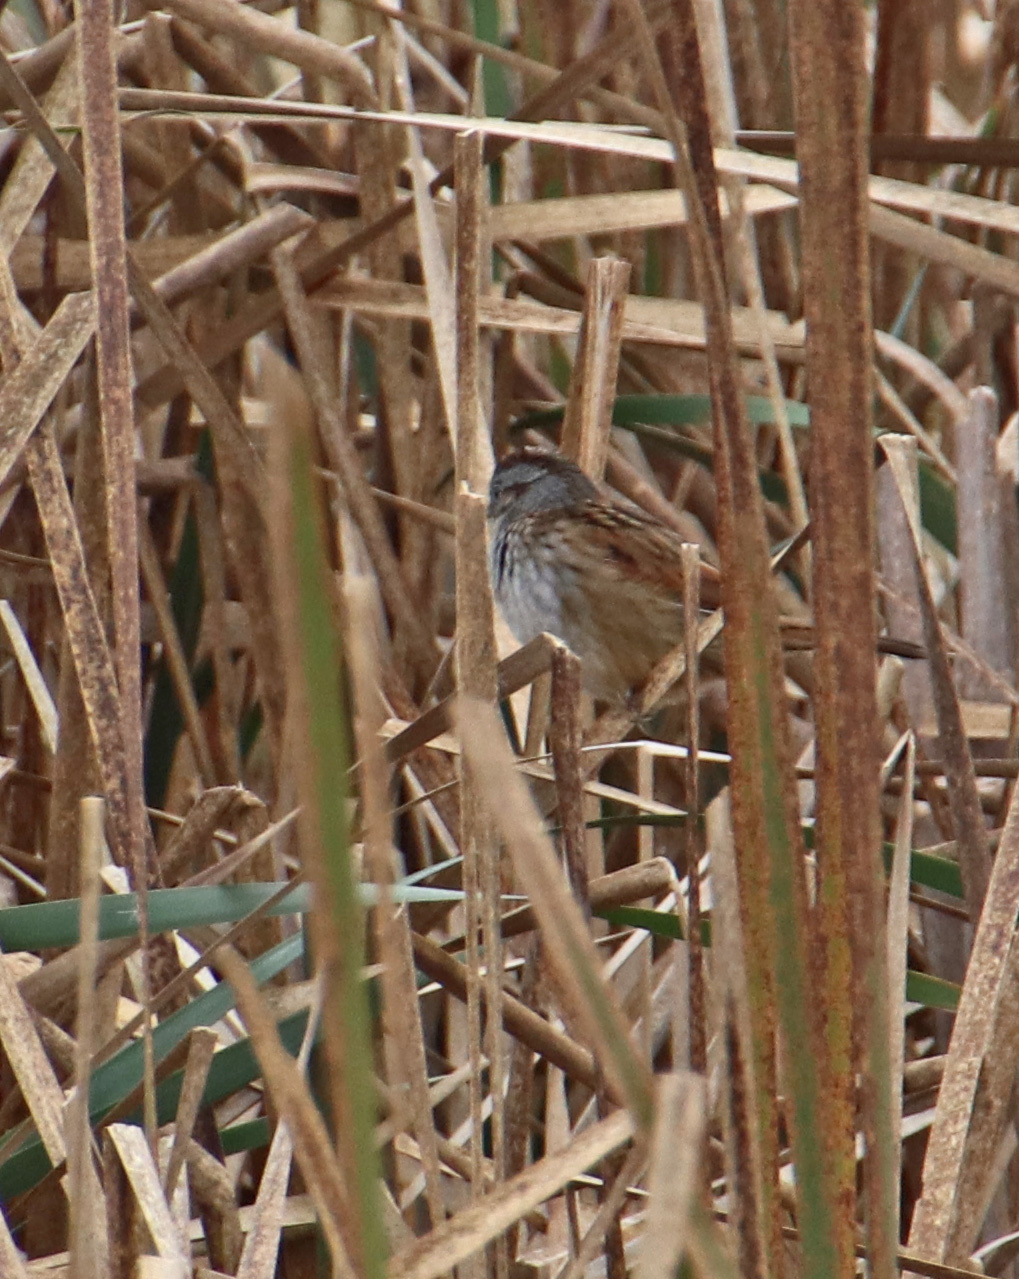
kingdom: Animalia
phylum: Chordata
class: Aves
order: Passeriformes
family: Passerellidae
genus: Melospiza
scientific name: Melospiza georgiana
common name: Swamp sparrow
